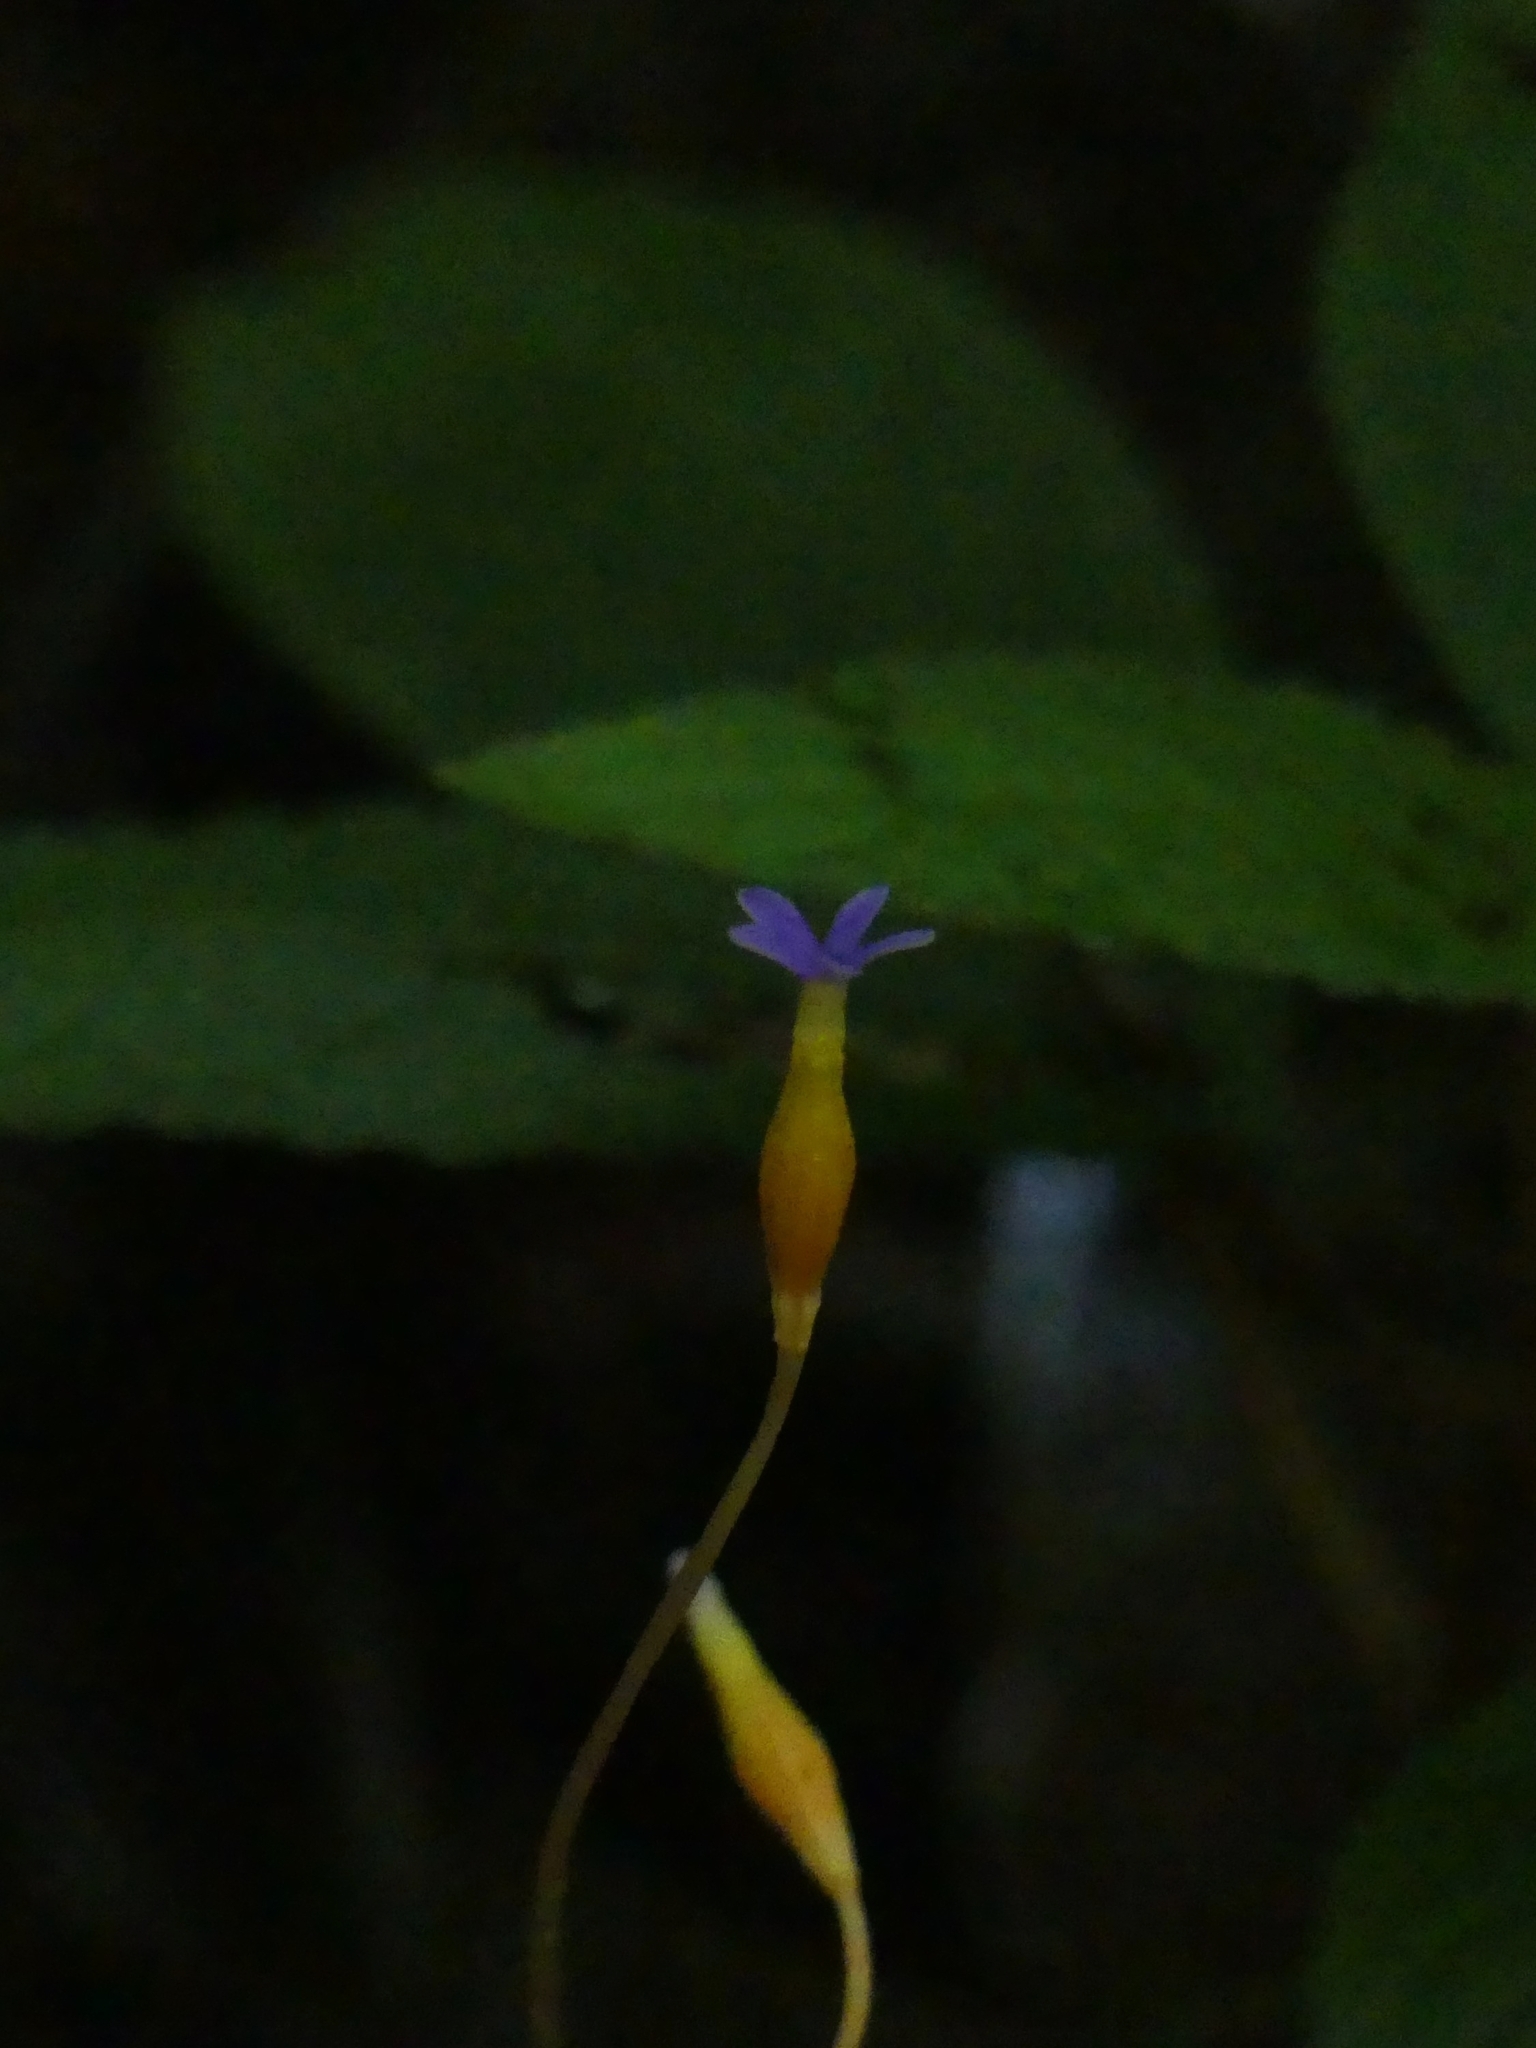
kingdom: Plantae
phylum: Tracheophyta
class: Magnoliopsida
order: Gentianales
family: Gentianaceae
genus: Voyria
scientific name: Voyria tenella
